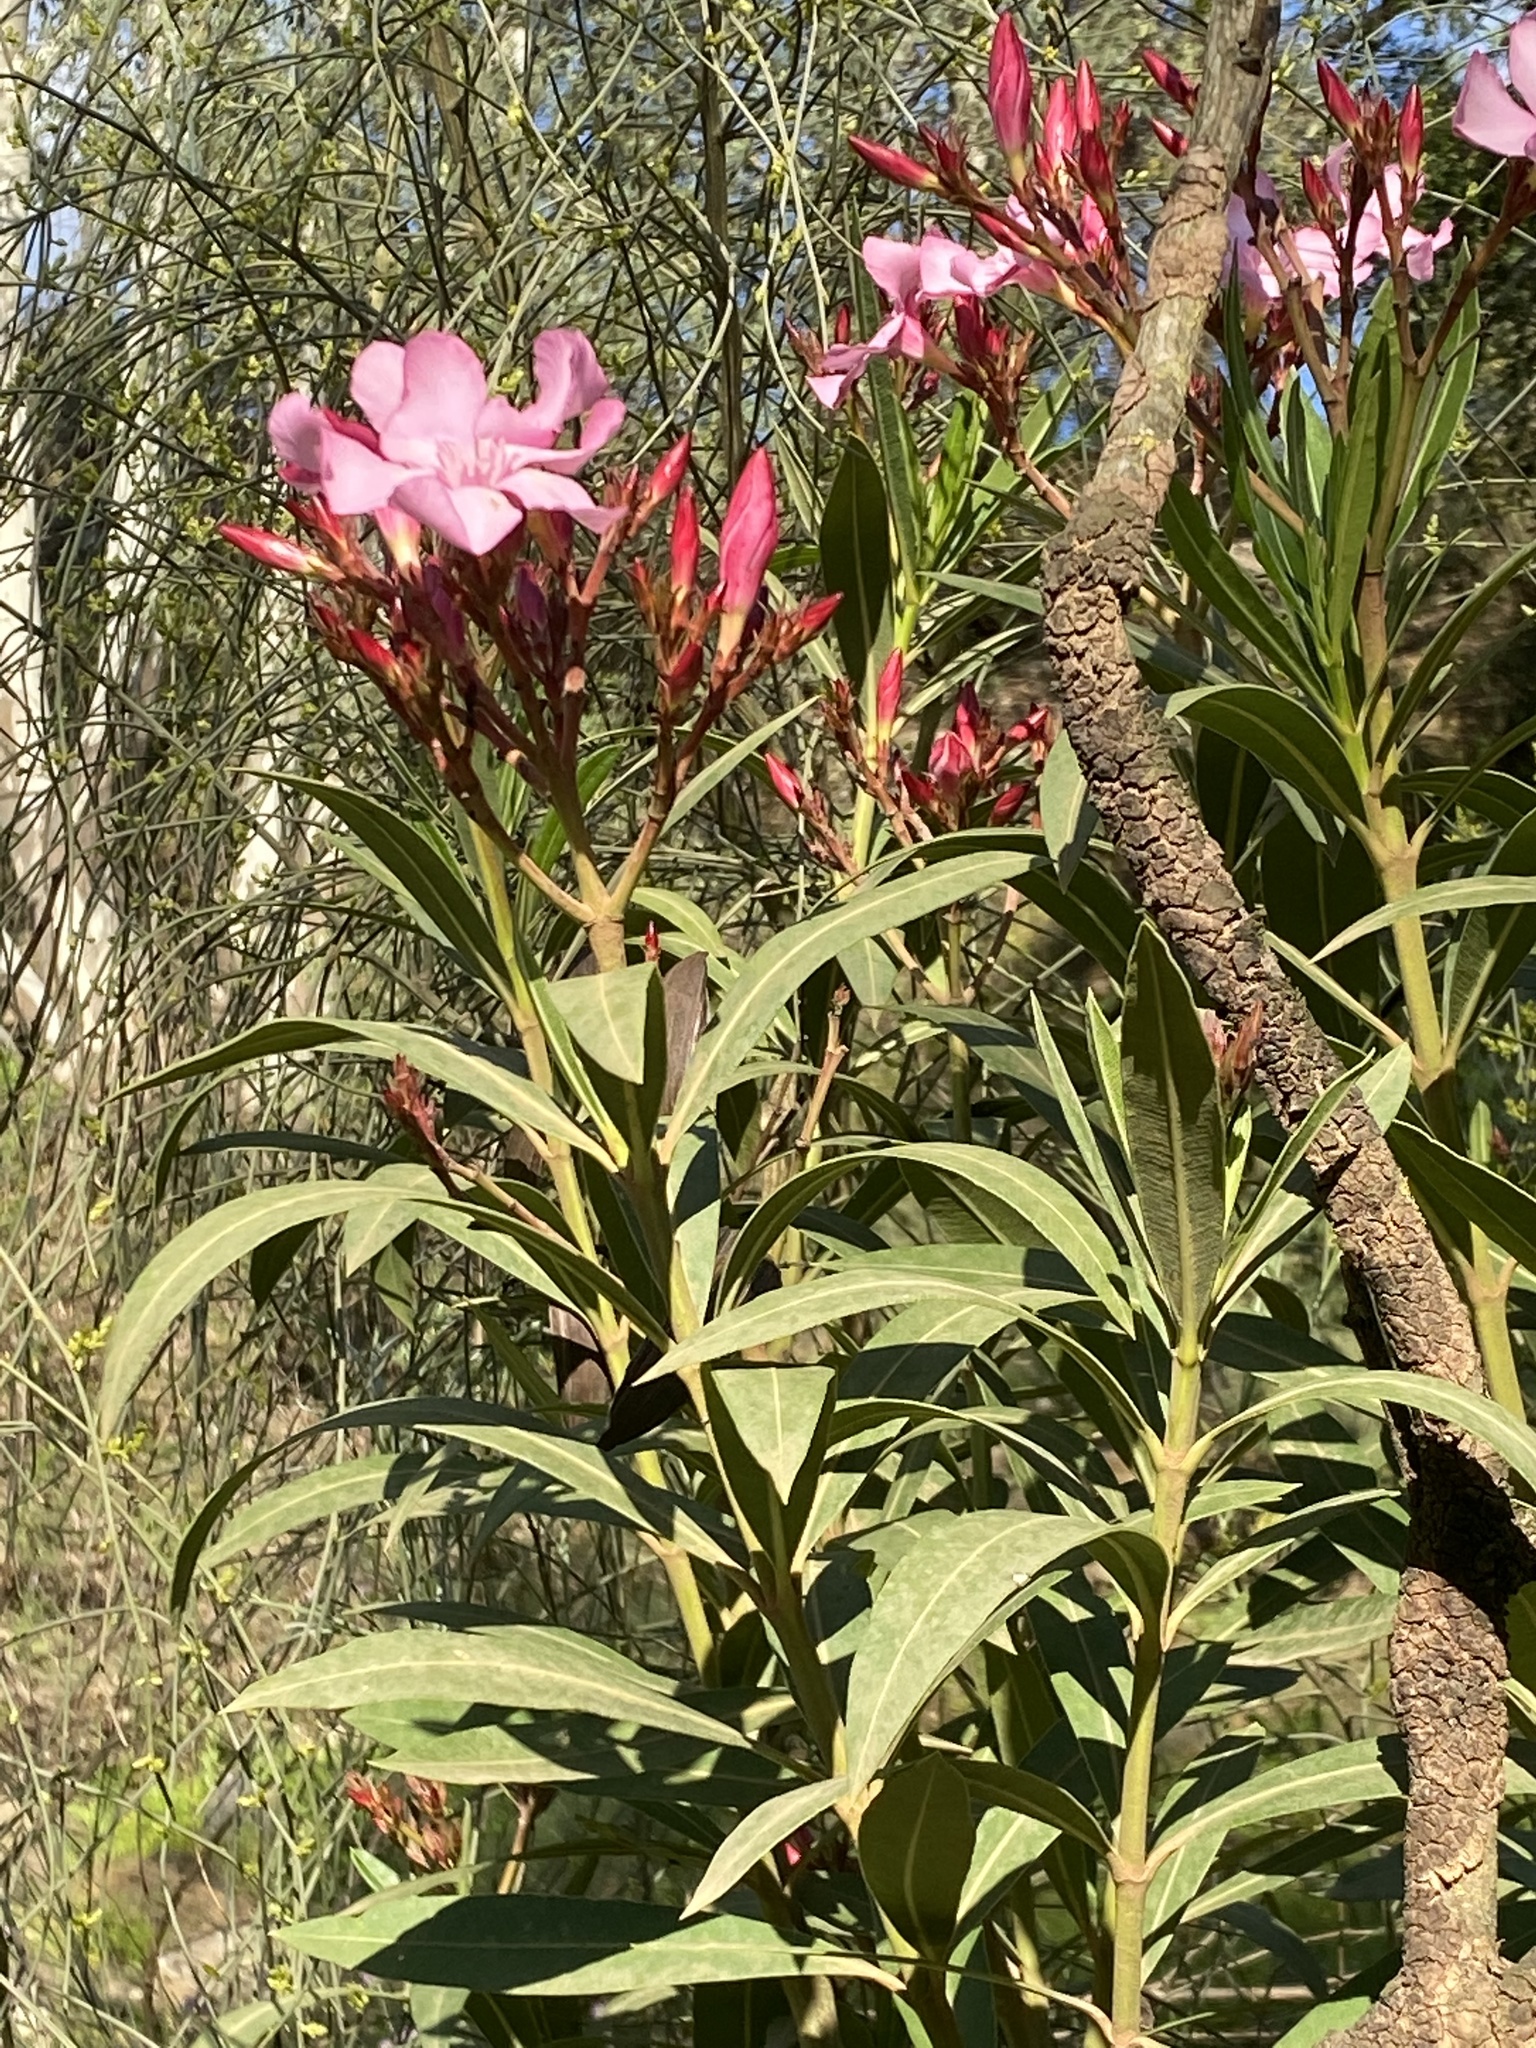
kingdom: Plantae
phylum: Tracheophyta
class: Magnoliopsida
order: Gentianales
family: Apocynaceae
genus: Nerium
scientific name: Nerium oleander
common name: Oleander
